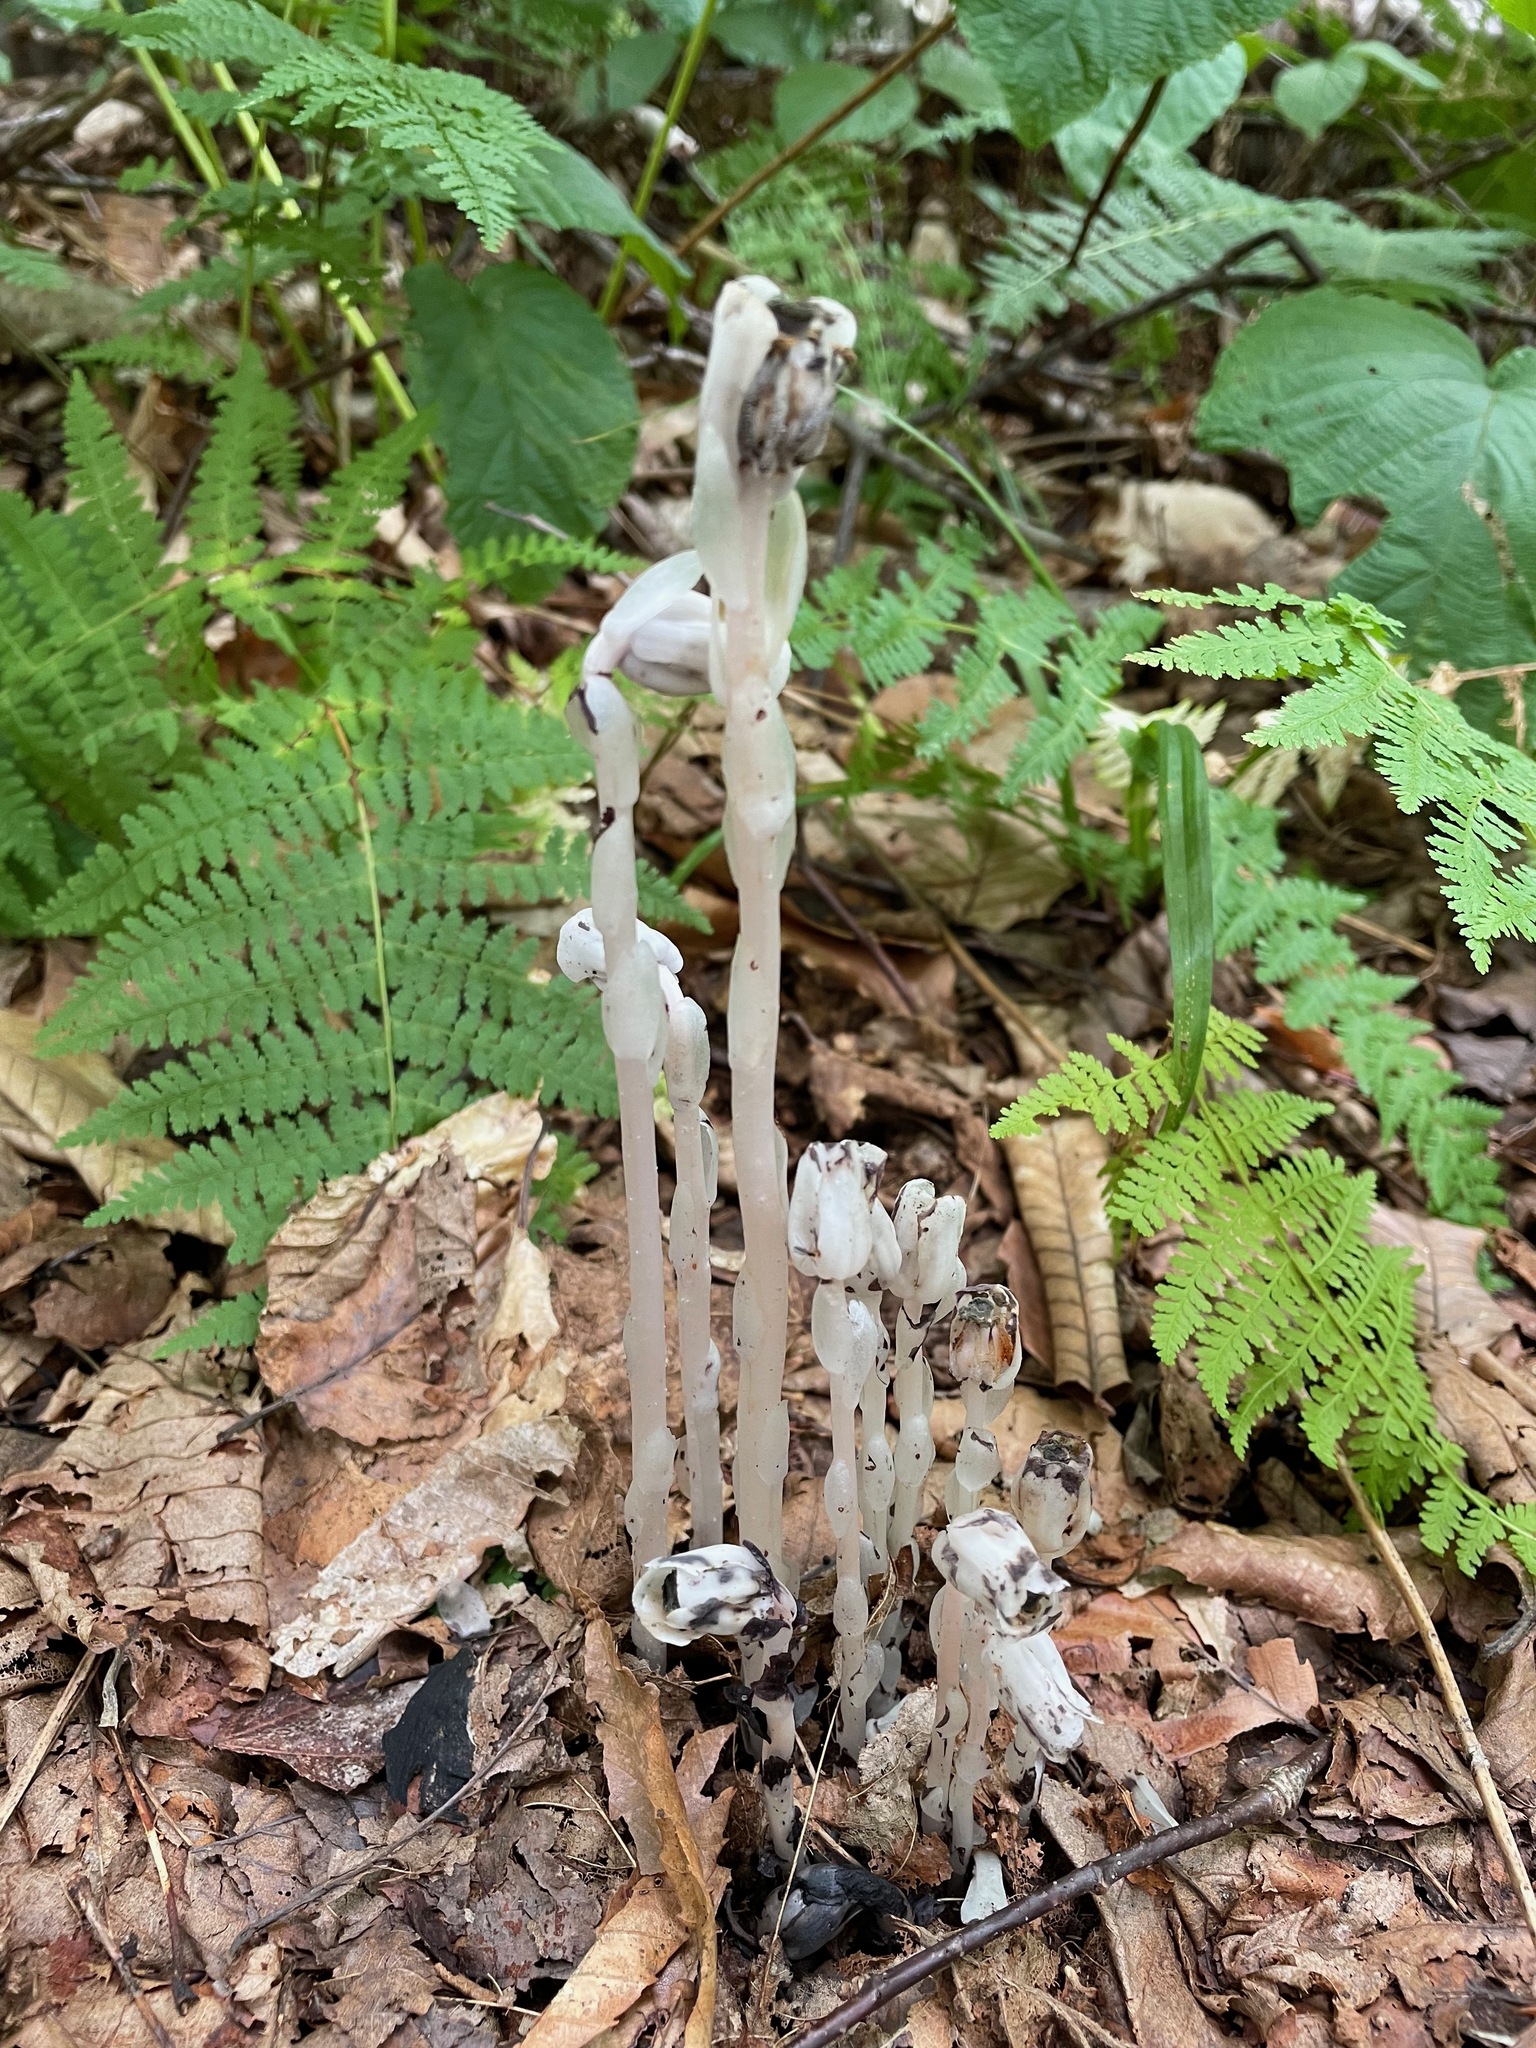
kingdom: Plantae
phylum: Tracheophyta
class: Magnoliopsida
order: Ericales
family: Ericaceae
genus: Monotropa
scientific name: Monotropa uniflora
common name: Convulsion root
